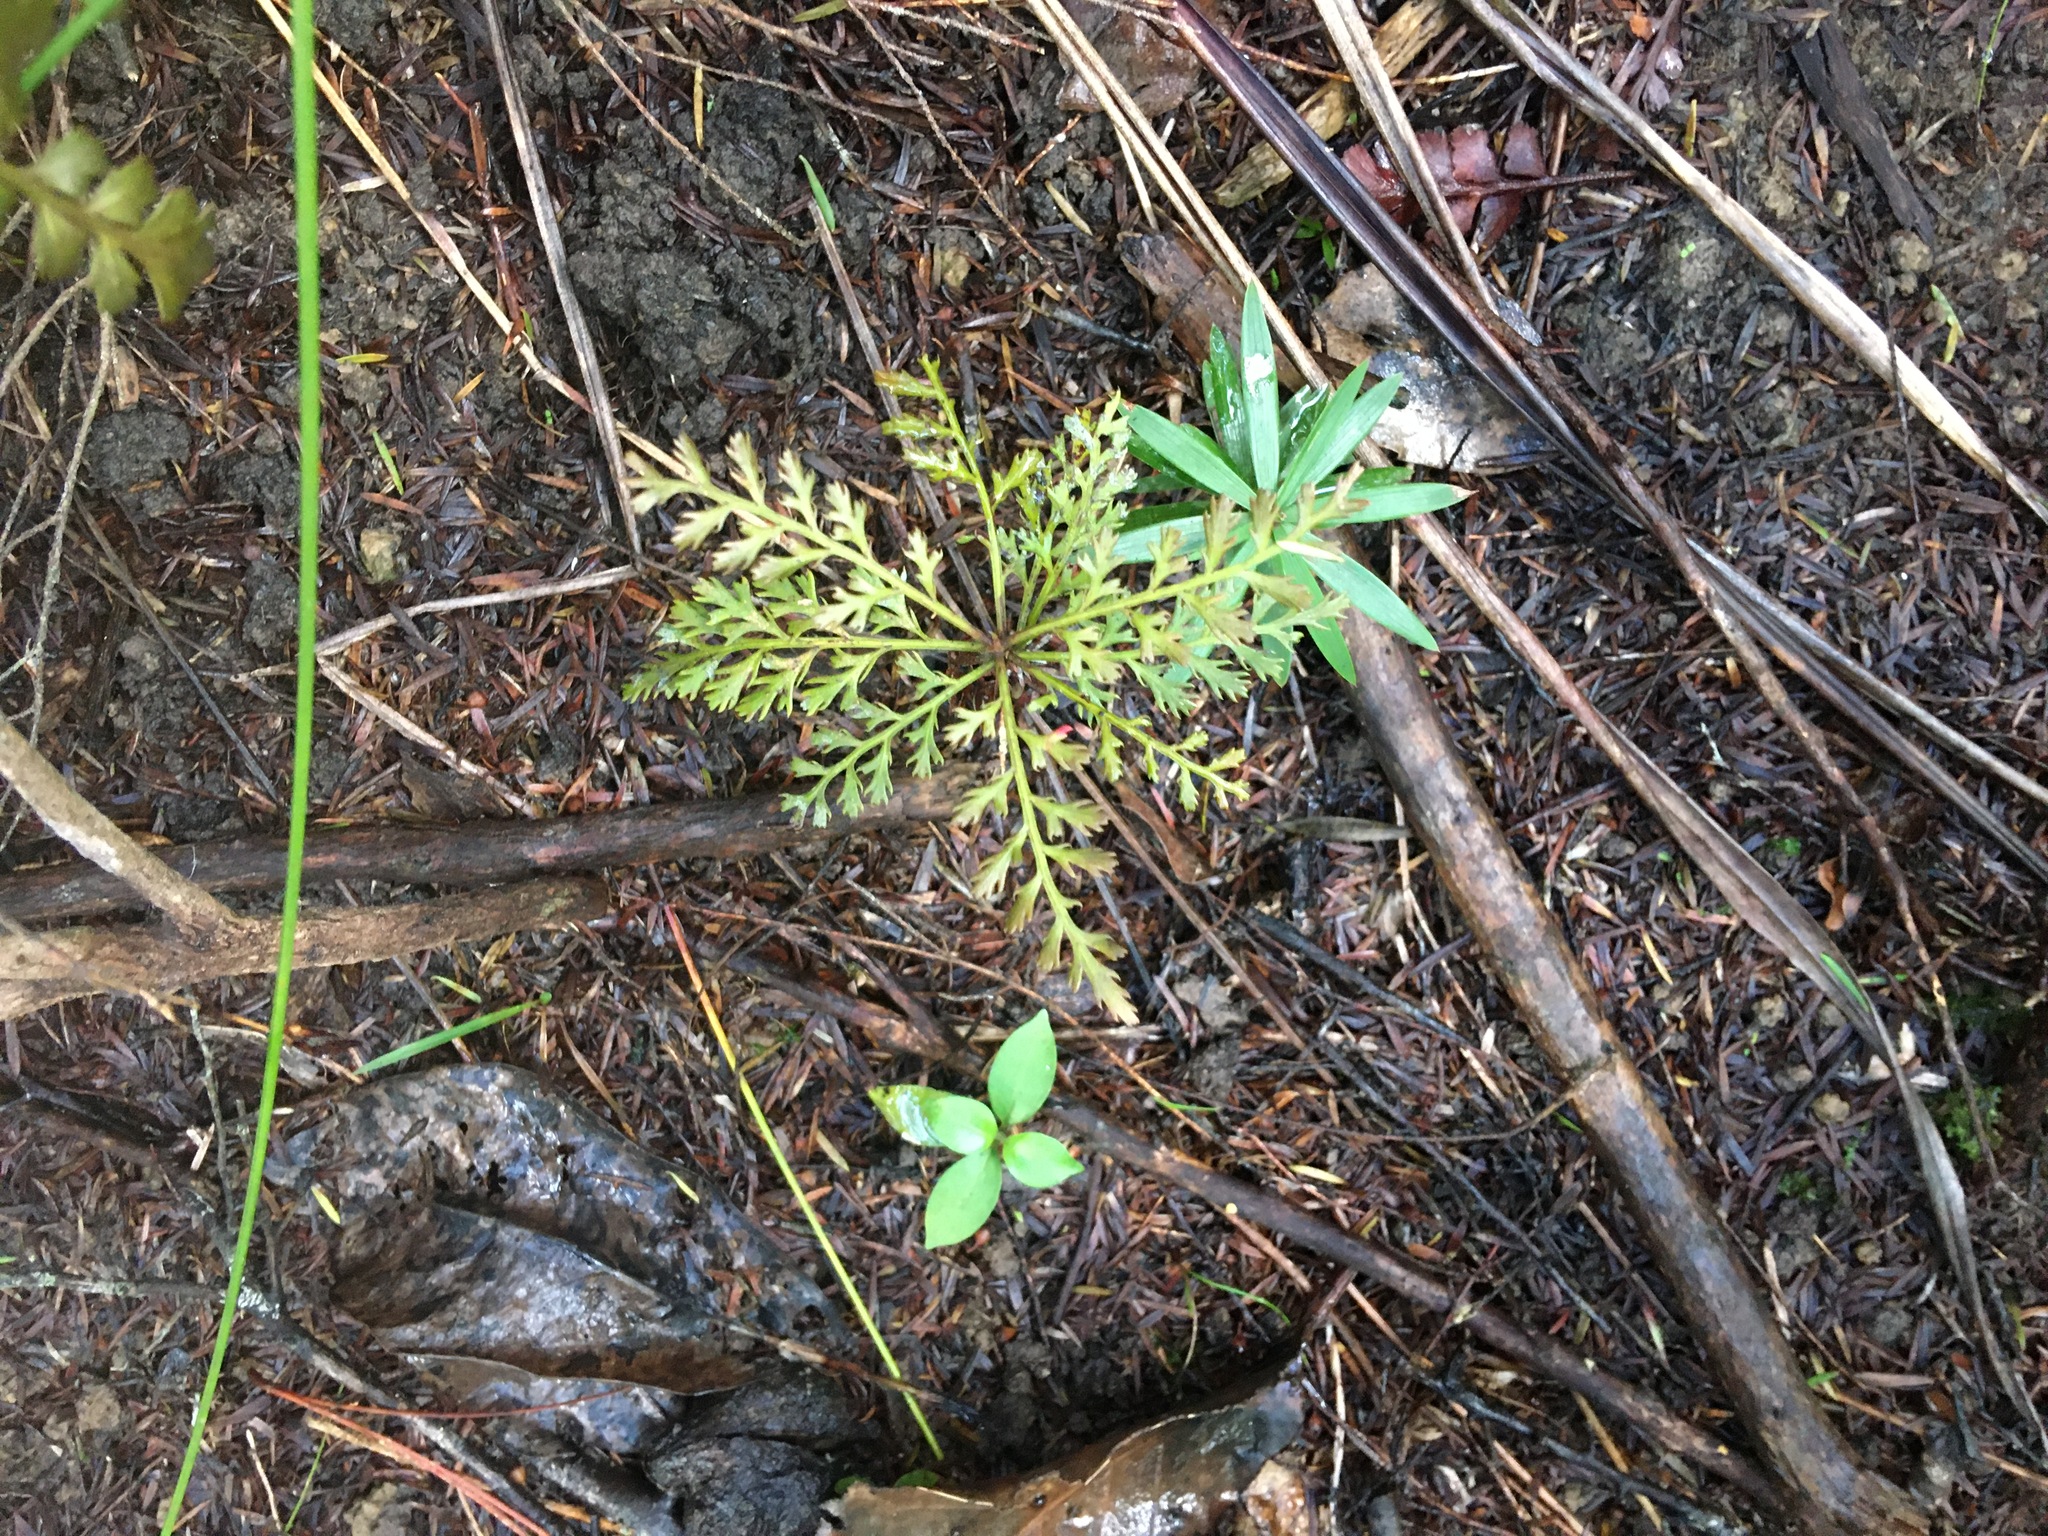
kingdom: Plantae
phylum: Tracheophyta
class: Pinopsida
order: Pinales
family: Phyllocladaceae
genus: Phyllocladus
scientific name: Phyllocladus trichomanoides
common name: Celery pine
